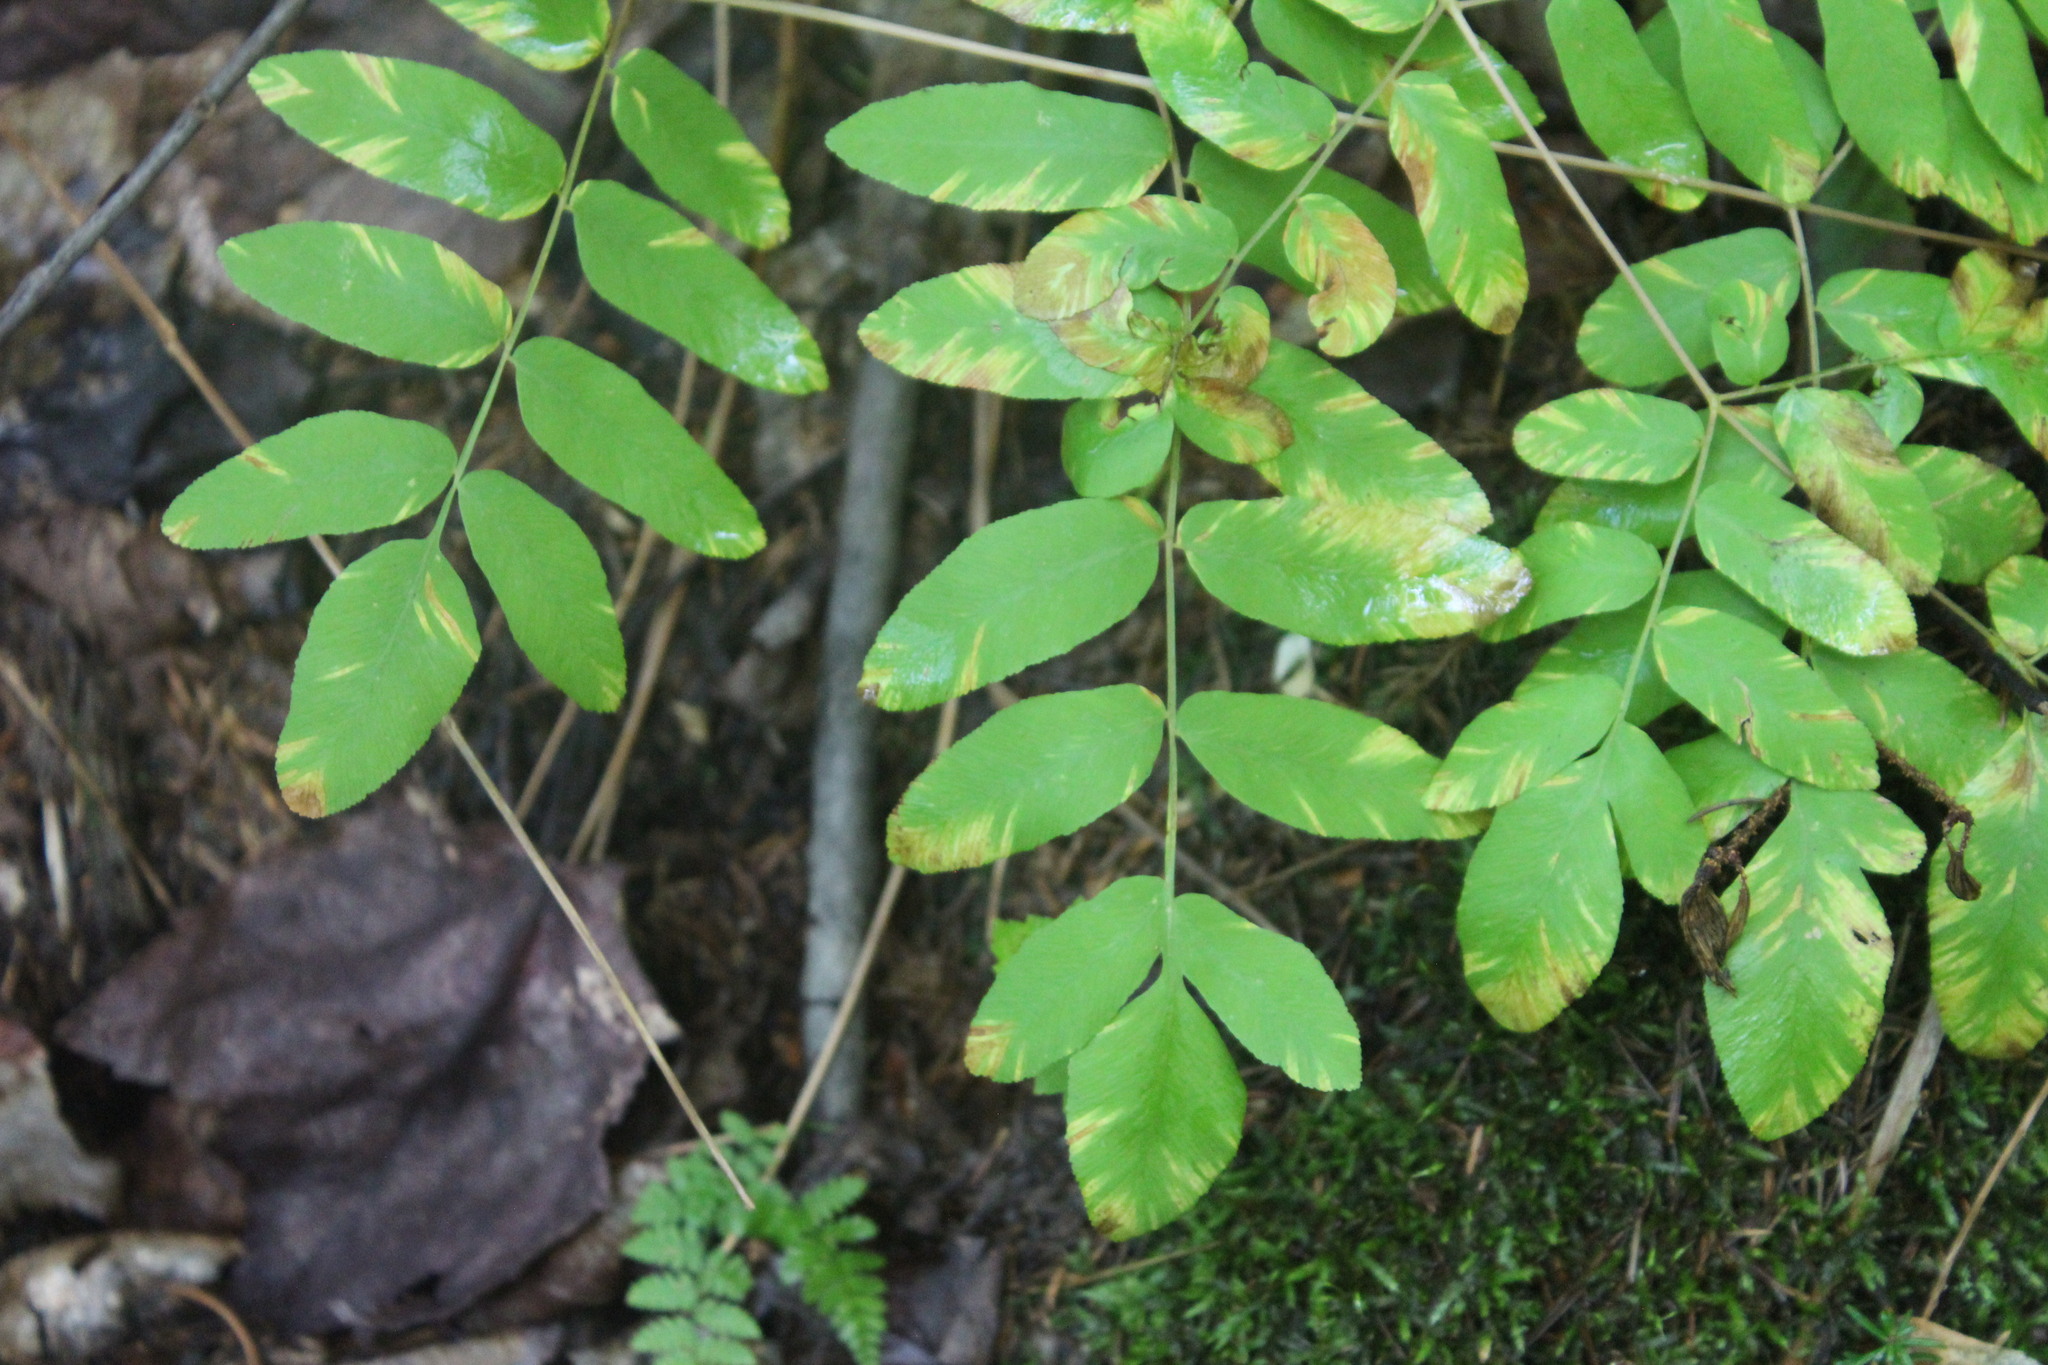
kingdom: Plantae
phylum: Tracheophyta
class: Polypodiopsida
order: Osmundales
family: Osmundaceae
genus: Osmunda
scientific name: Osmunda spectabilis
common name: American royal fern
